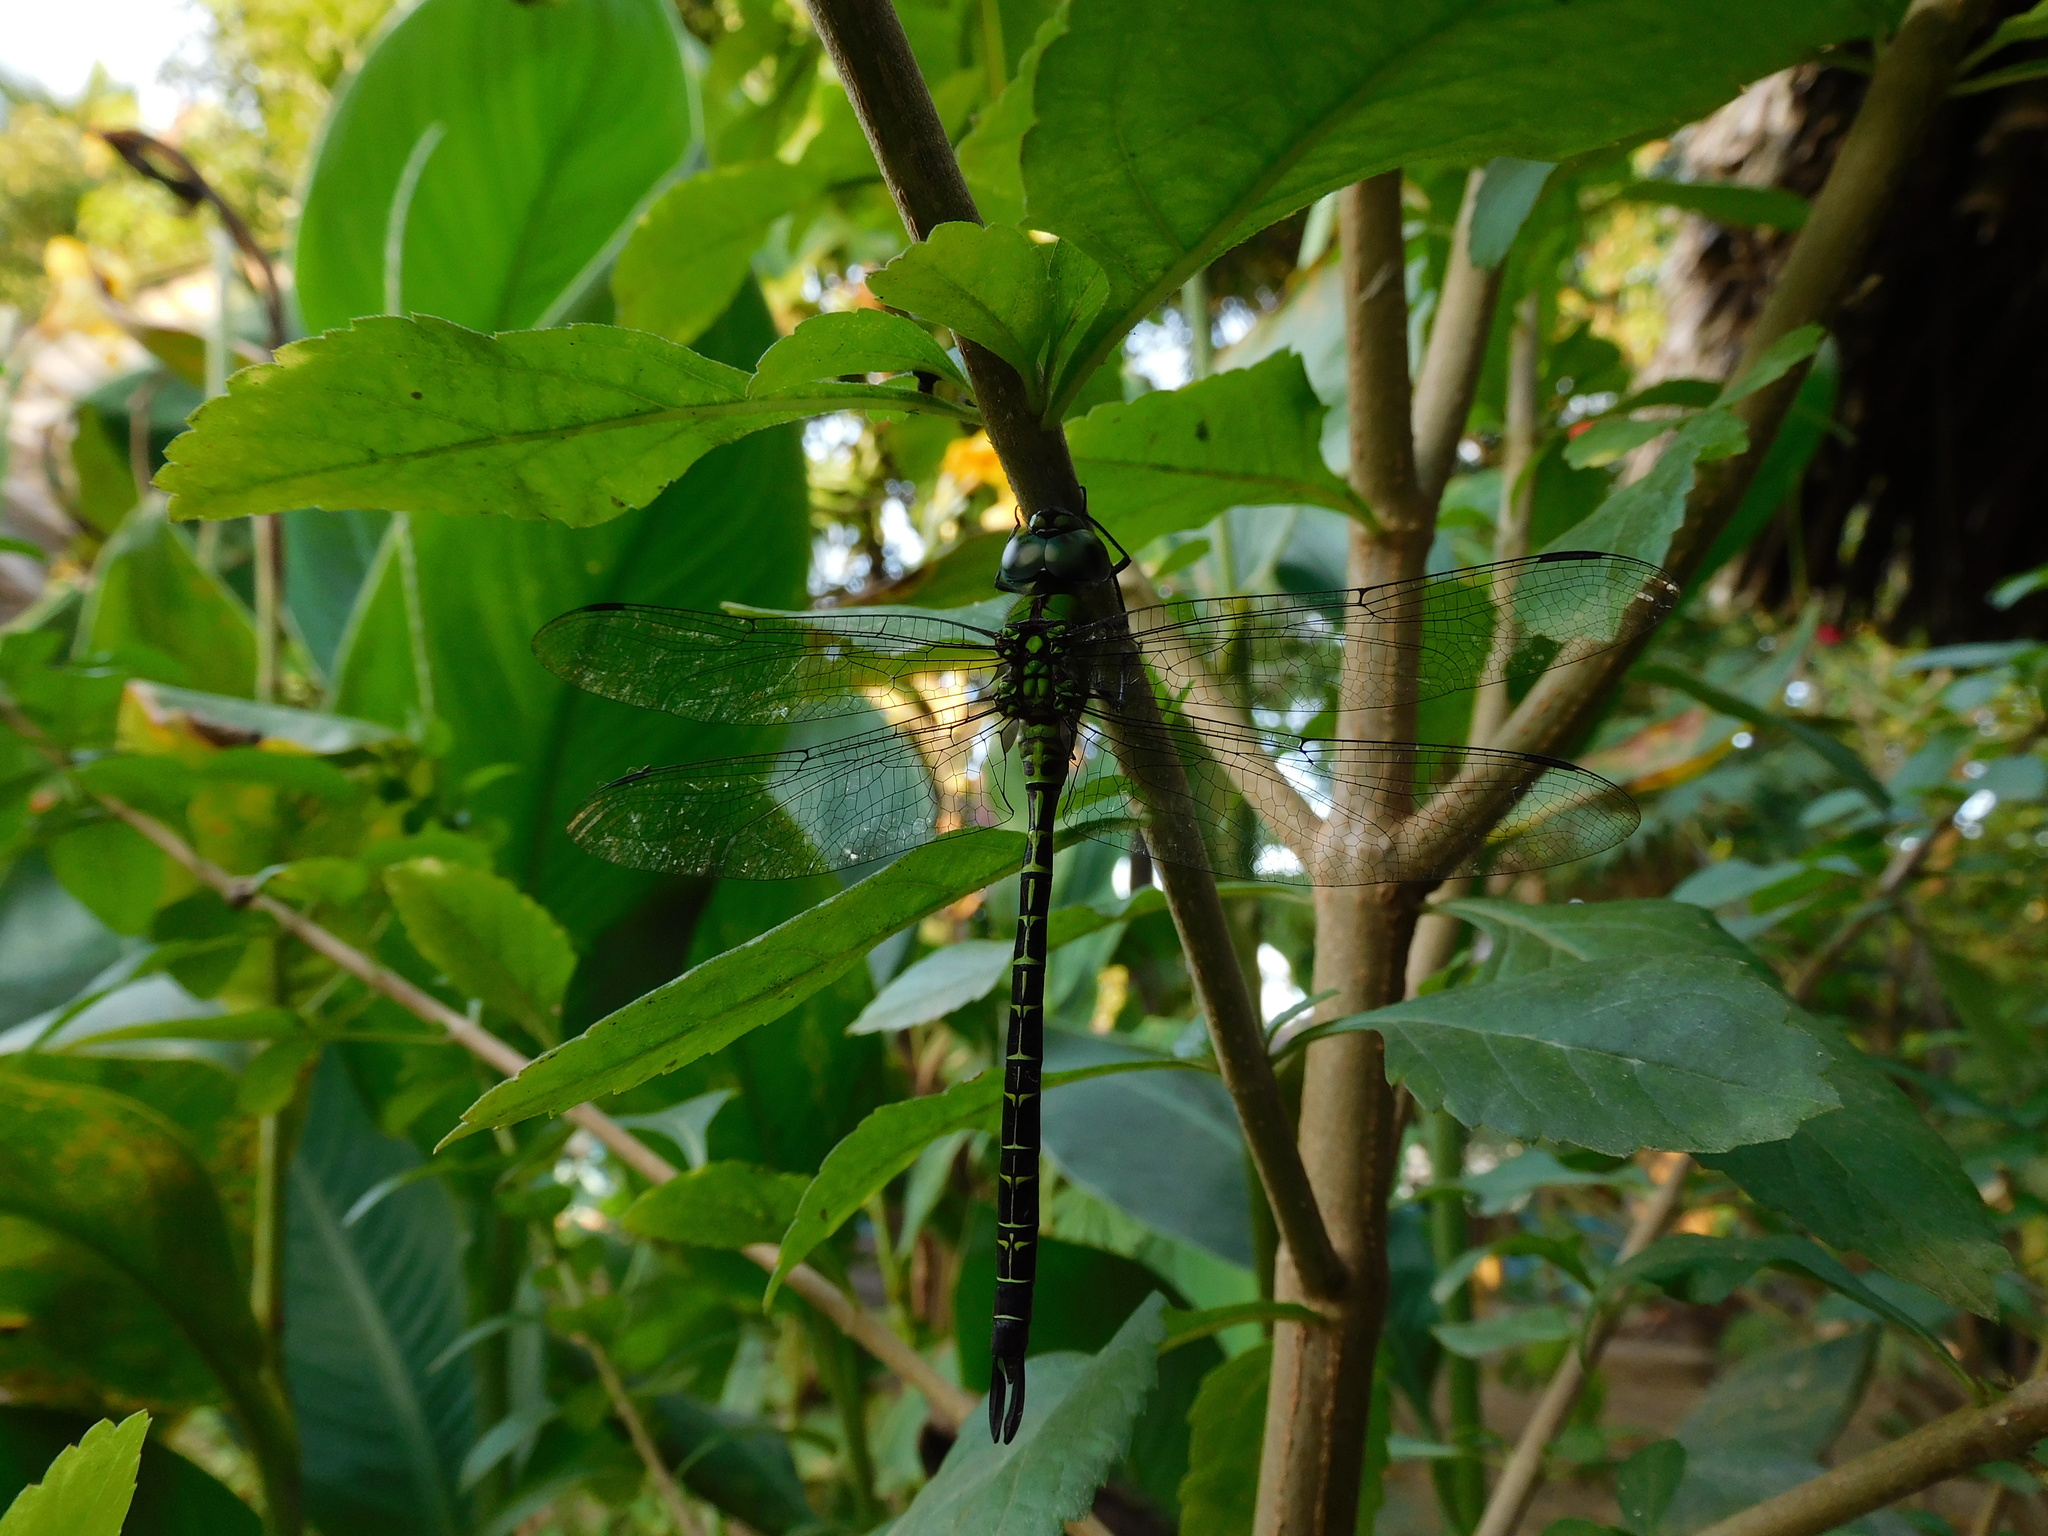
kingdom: Animalia
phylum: Arthropoda
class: Insecta
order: Odonata
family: Aeshnidae
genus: Coryphaeschna
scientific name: Coryphaeschna adnexa
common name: Blue-faced darner
